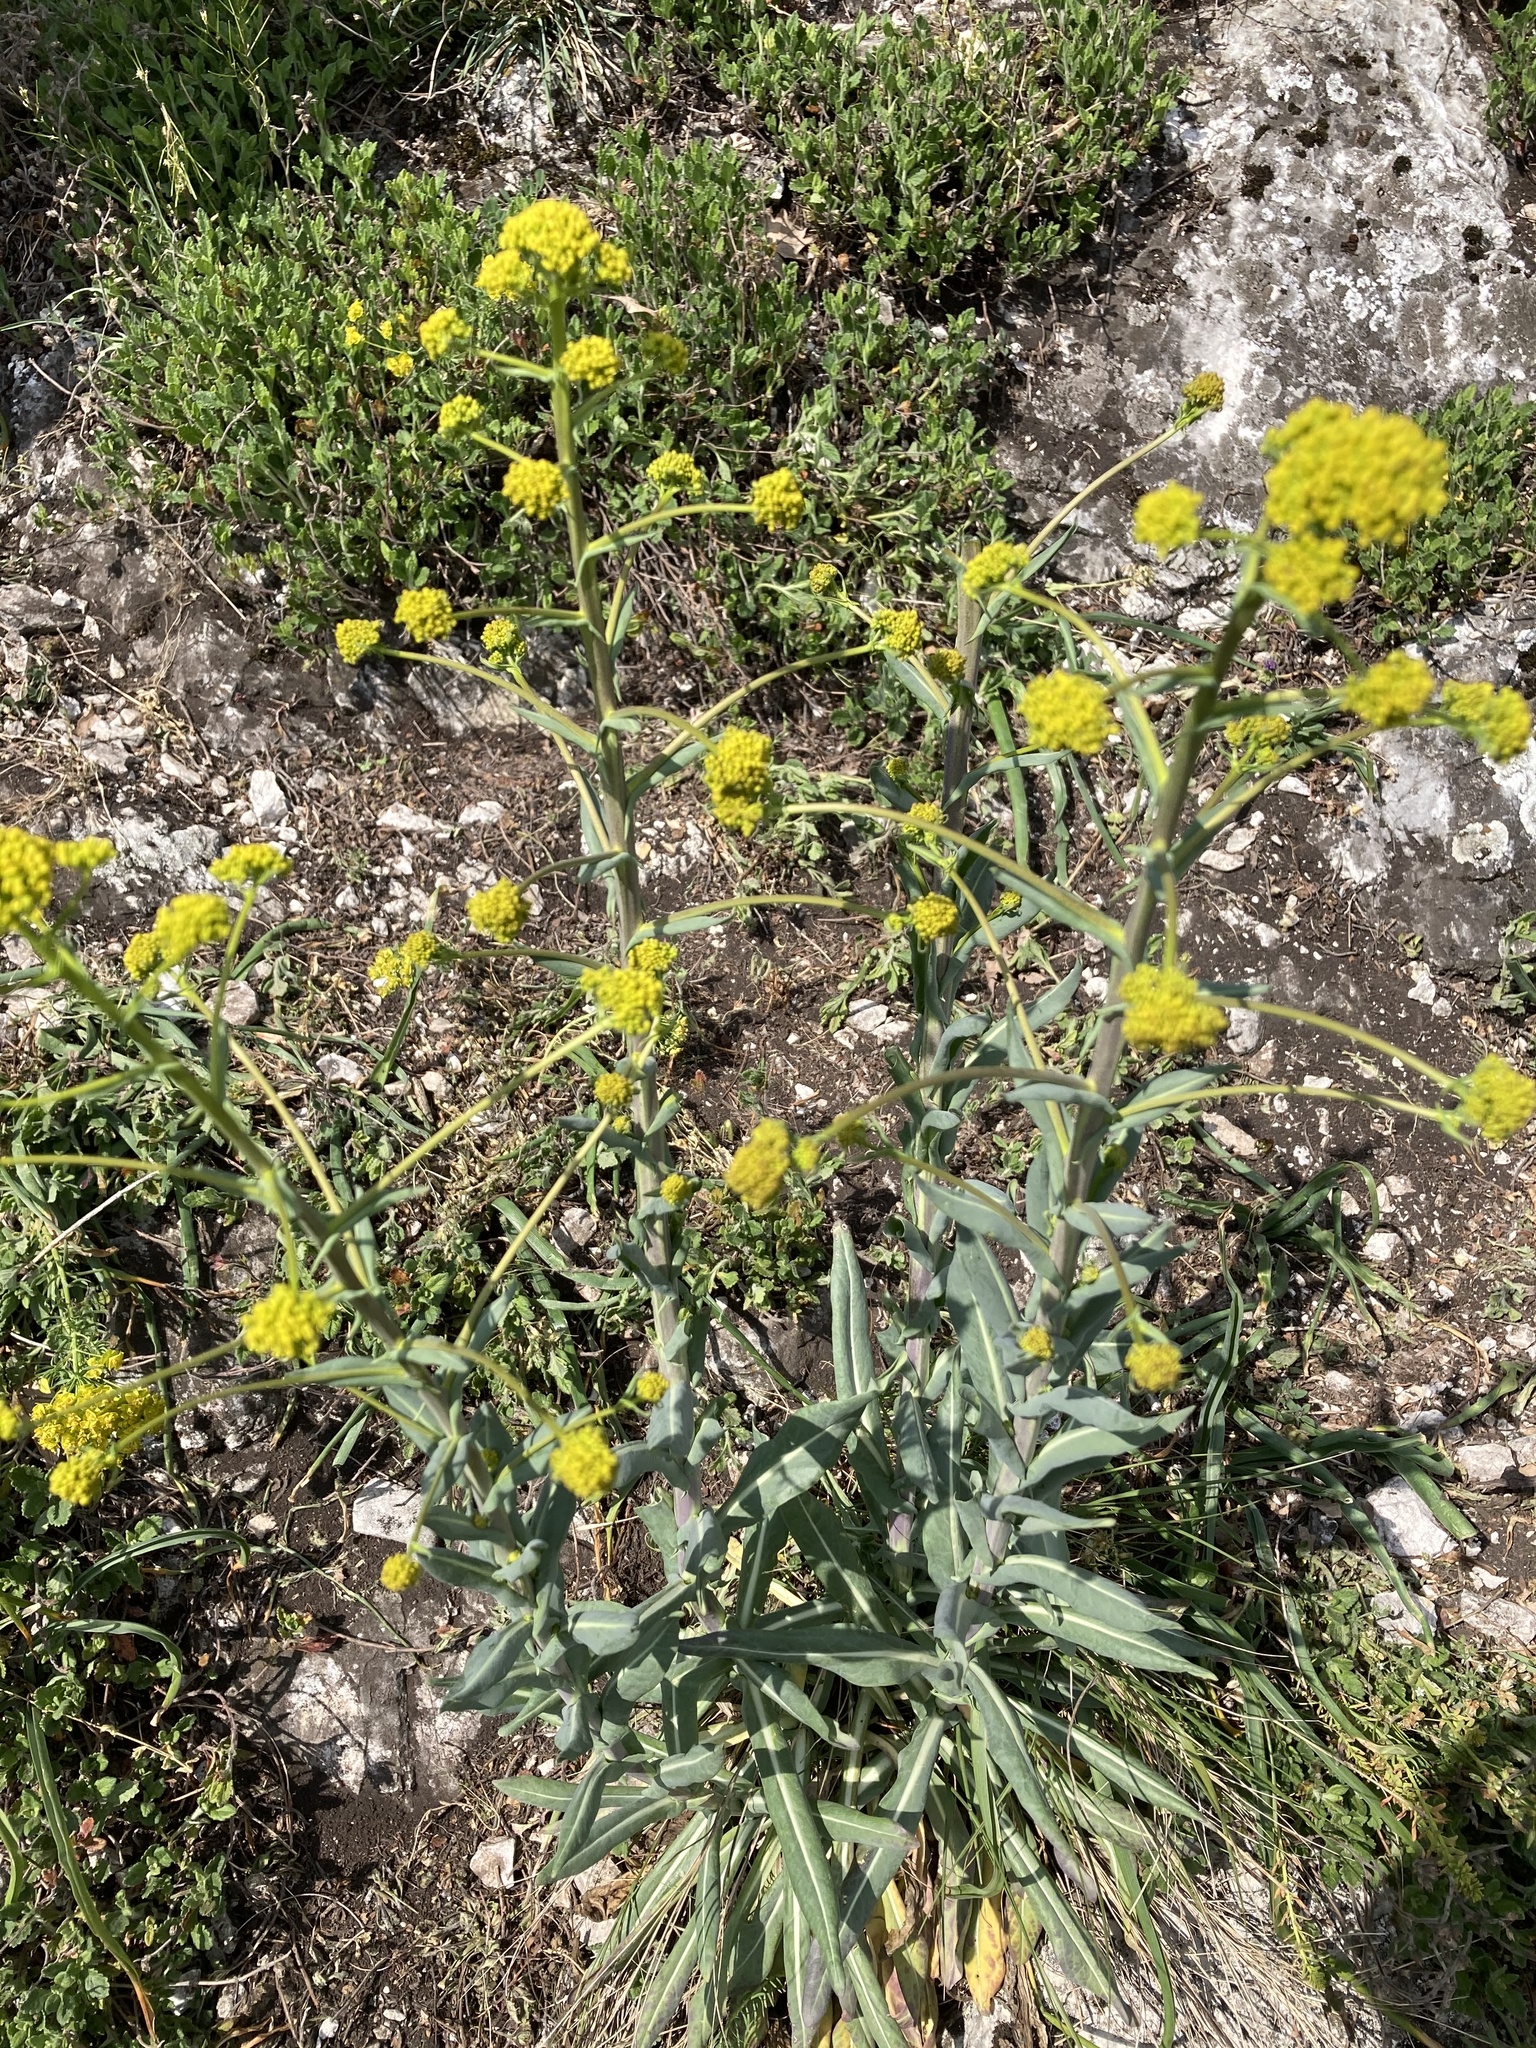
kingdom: Plantae
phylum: Tracheophyta
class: Magnoliopsida
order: Brassicales
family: Brassicaceae
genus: Isatis
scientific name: Isatis tinctoria
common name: Woad
